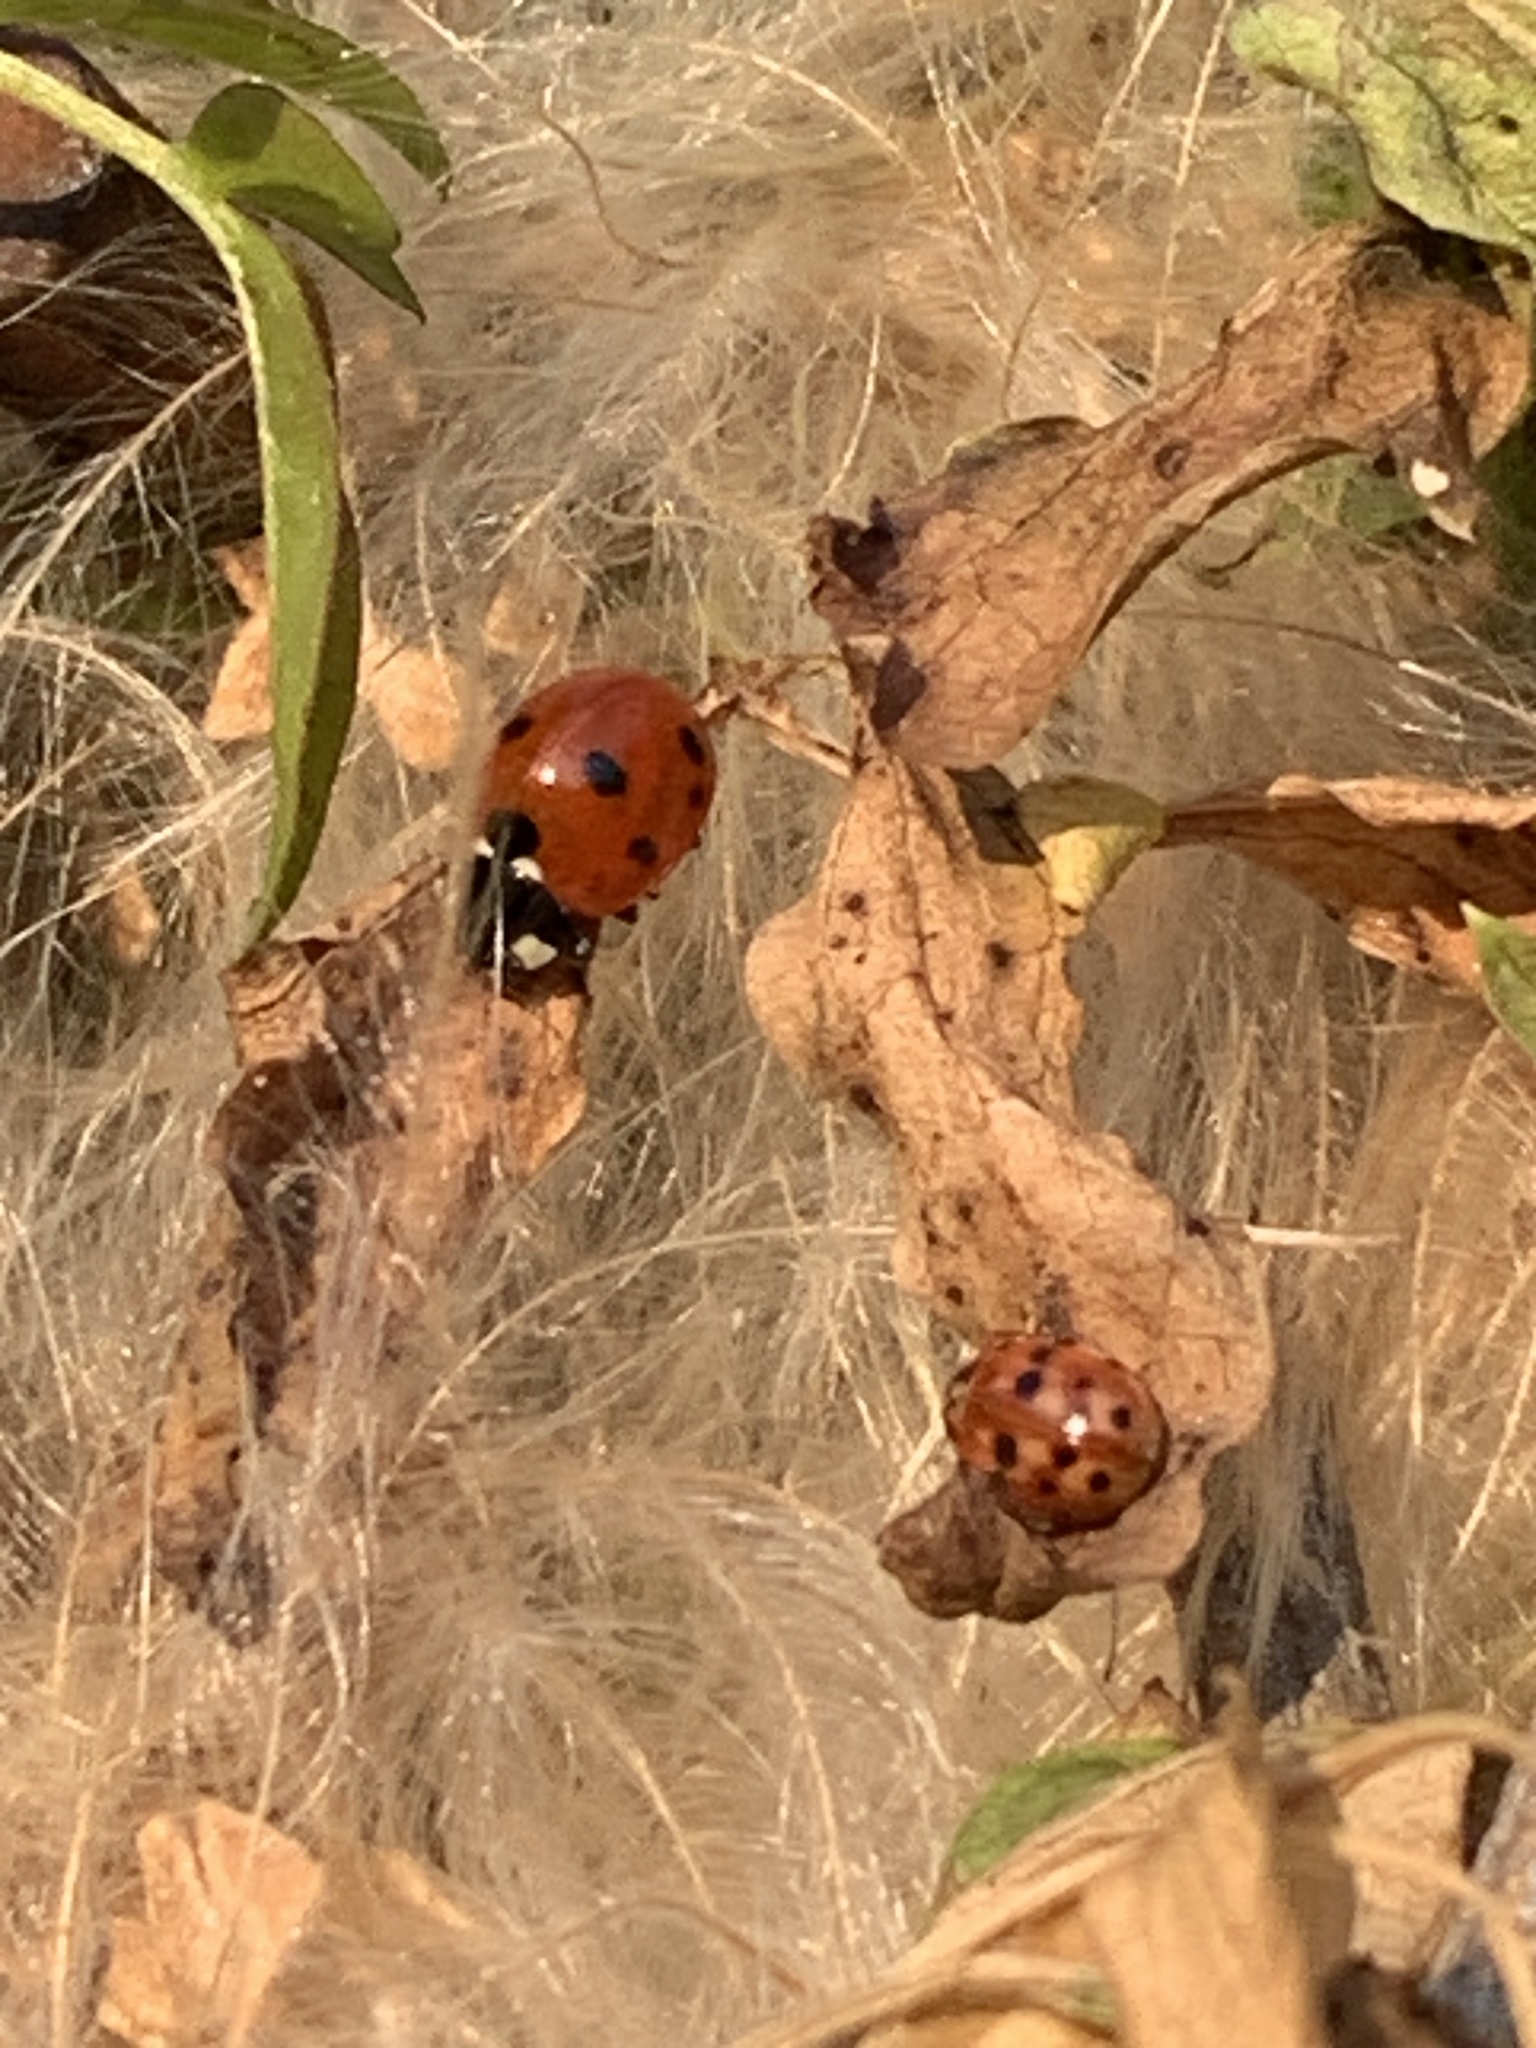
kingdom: Animalia
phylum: Arthropoda
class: Insecta
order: Coleoptera
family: Coccinellidae
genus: Coccinella
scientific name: Coccinella septempunctata
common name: Sevenspotted lady beetle
